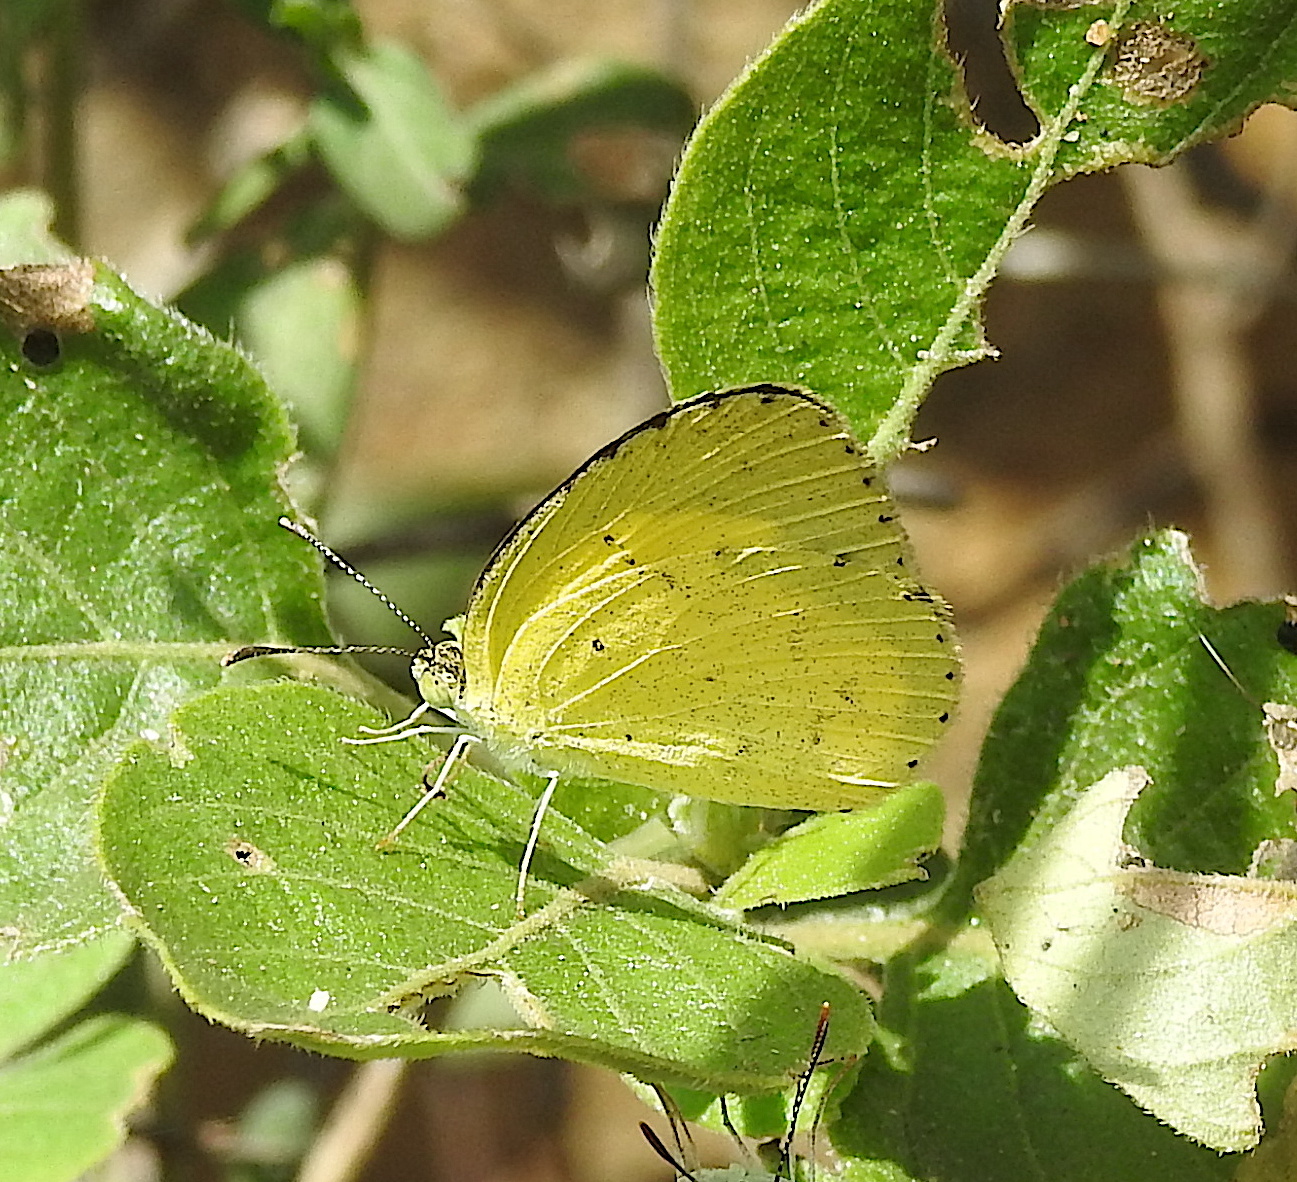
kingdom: Animalia
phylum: Arthropoda
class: Insecta
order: Lepidoptera
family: Pieridae
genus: Eurema
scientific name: Eurema brigitta
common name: Small grass yellow
